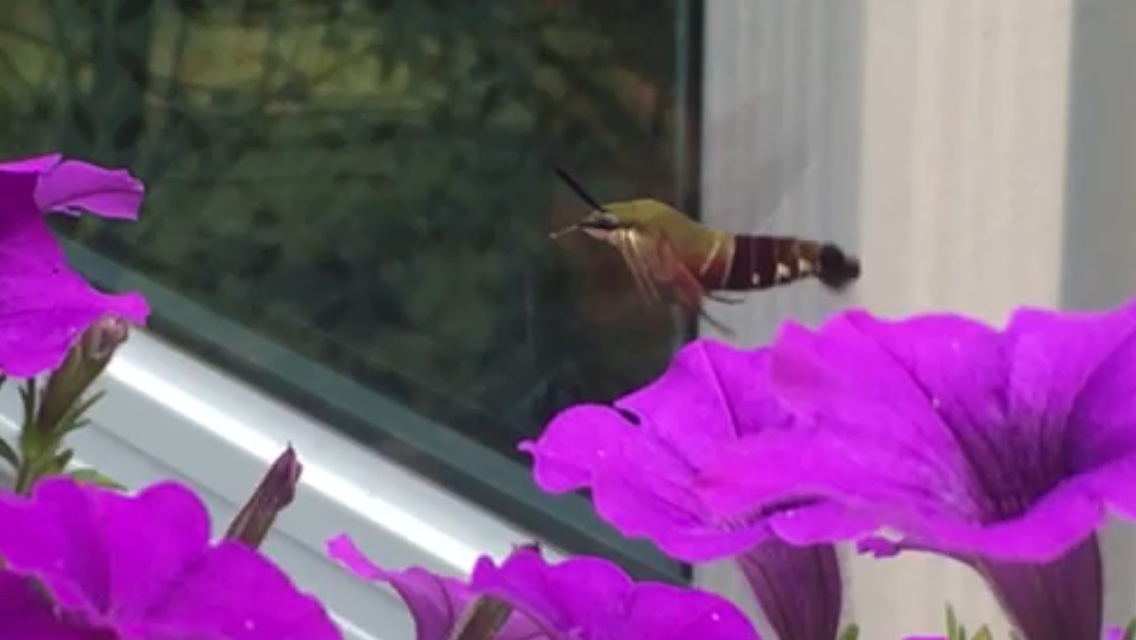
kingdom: Animalia
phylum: Arthropoda
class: Insecta
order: Lepidoptera
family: Sphingidae
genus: Hemaris
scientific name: Hemaris thysbe
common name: Common clear-wing
